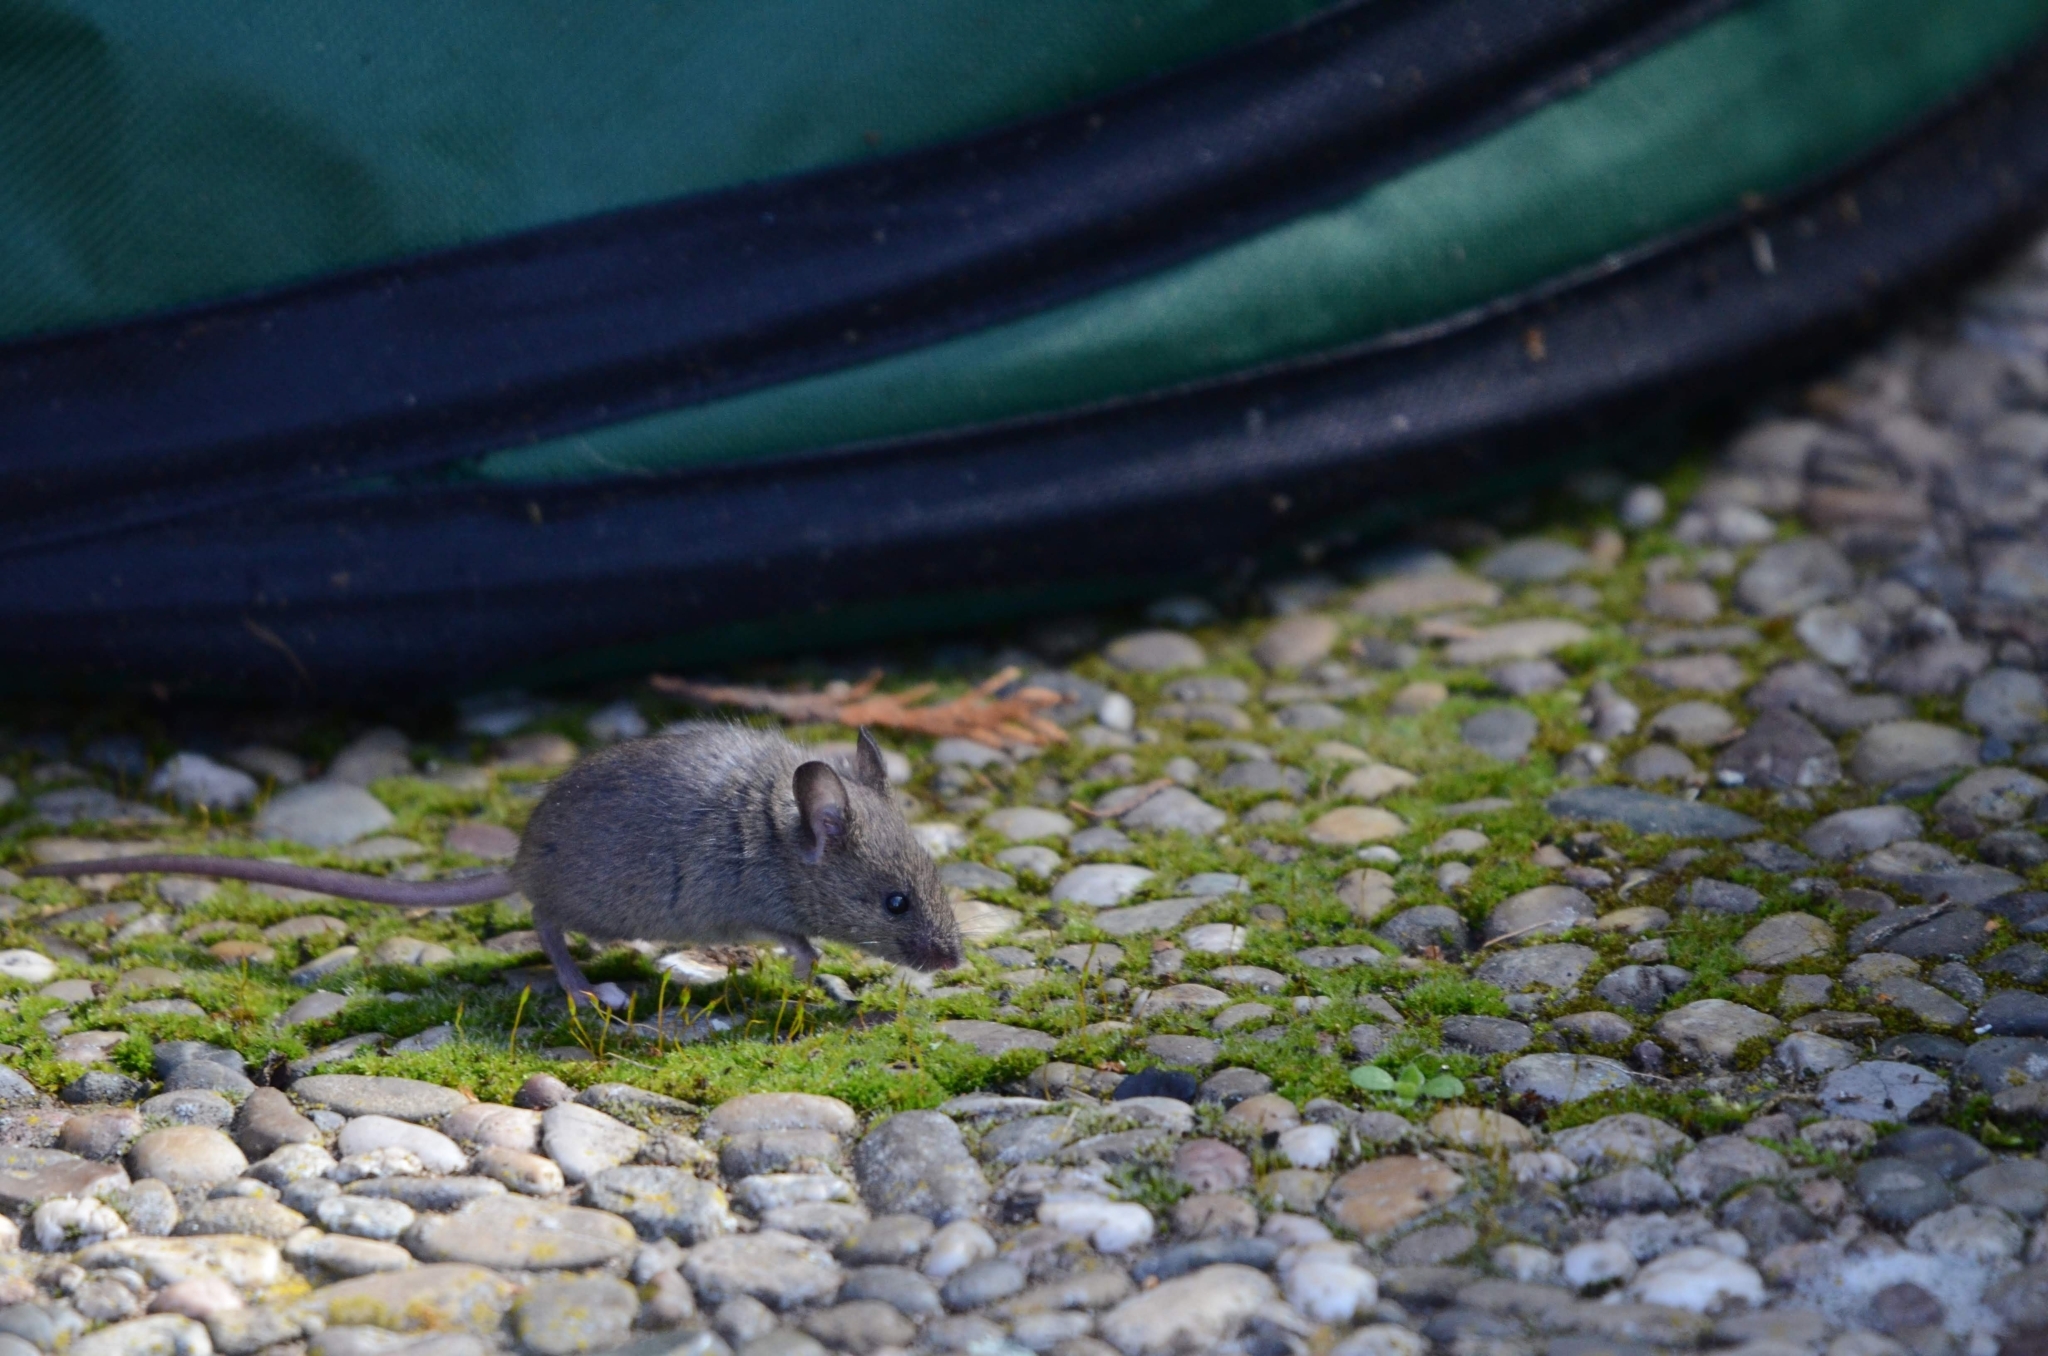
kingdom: Animalia
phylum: Chordata
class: Mammalia
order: Rodentia
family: Muridae
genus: Mus
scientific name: Mus musculus
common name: House mouse
